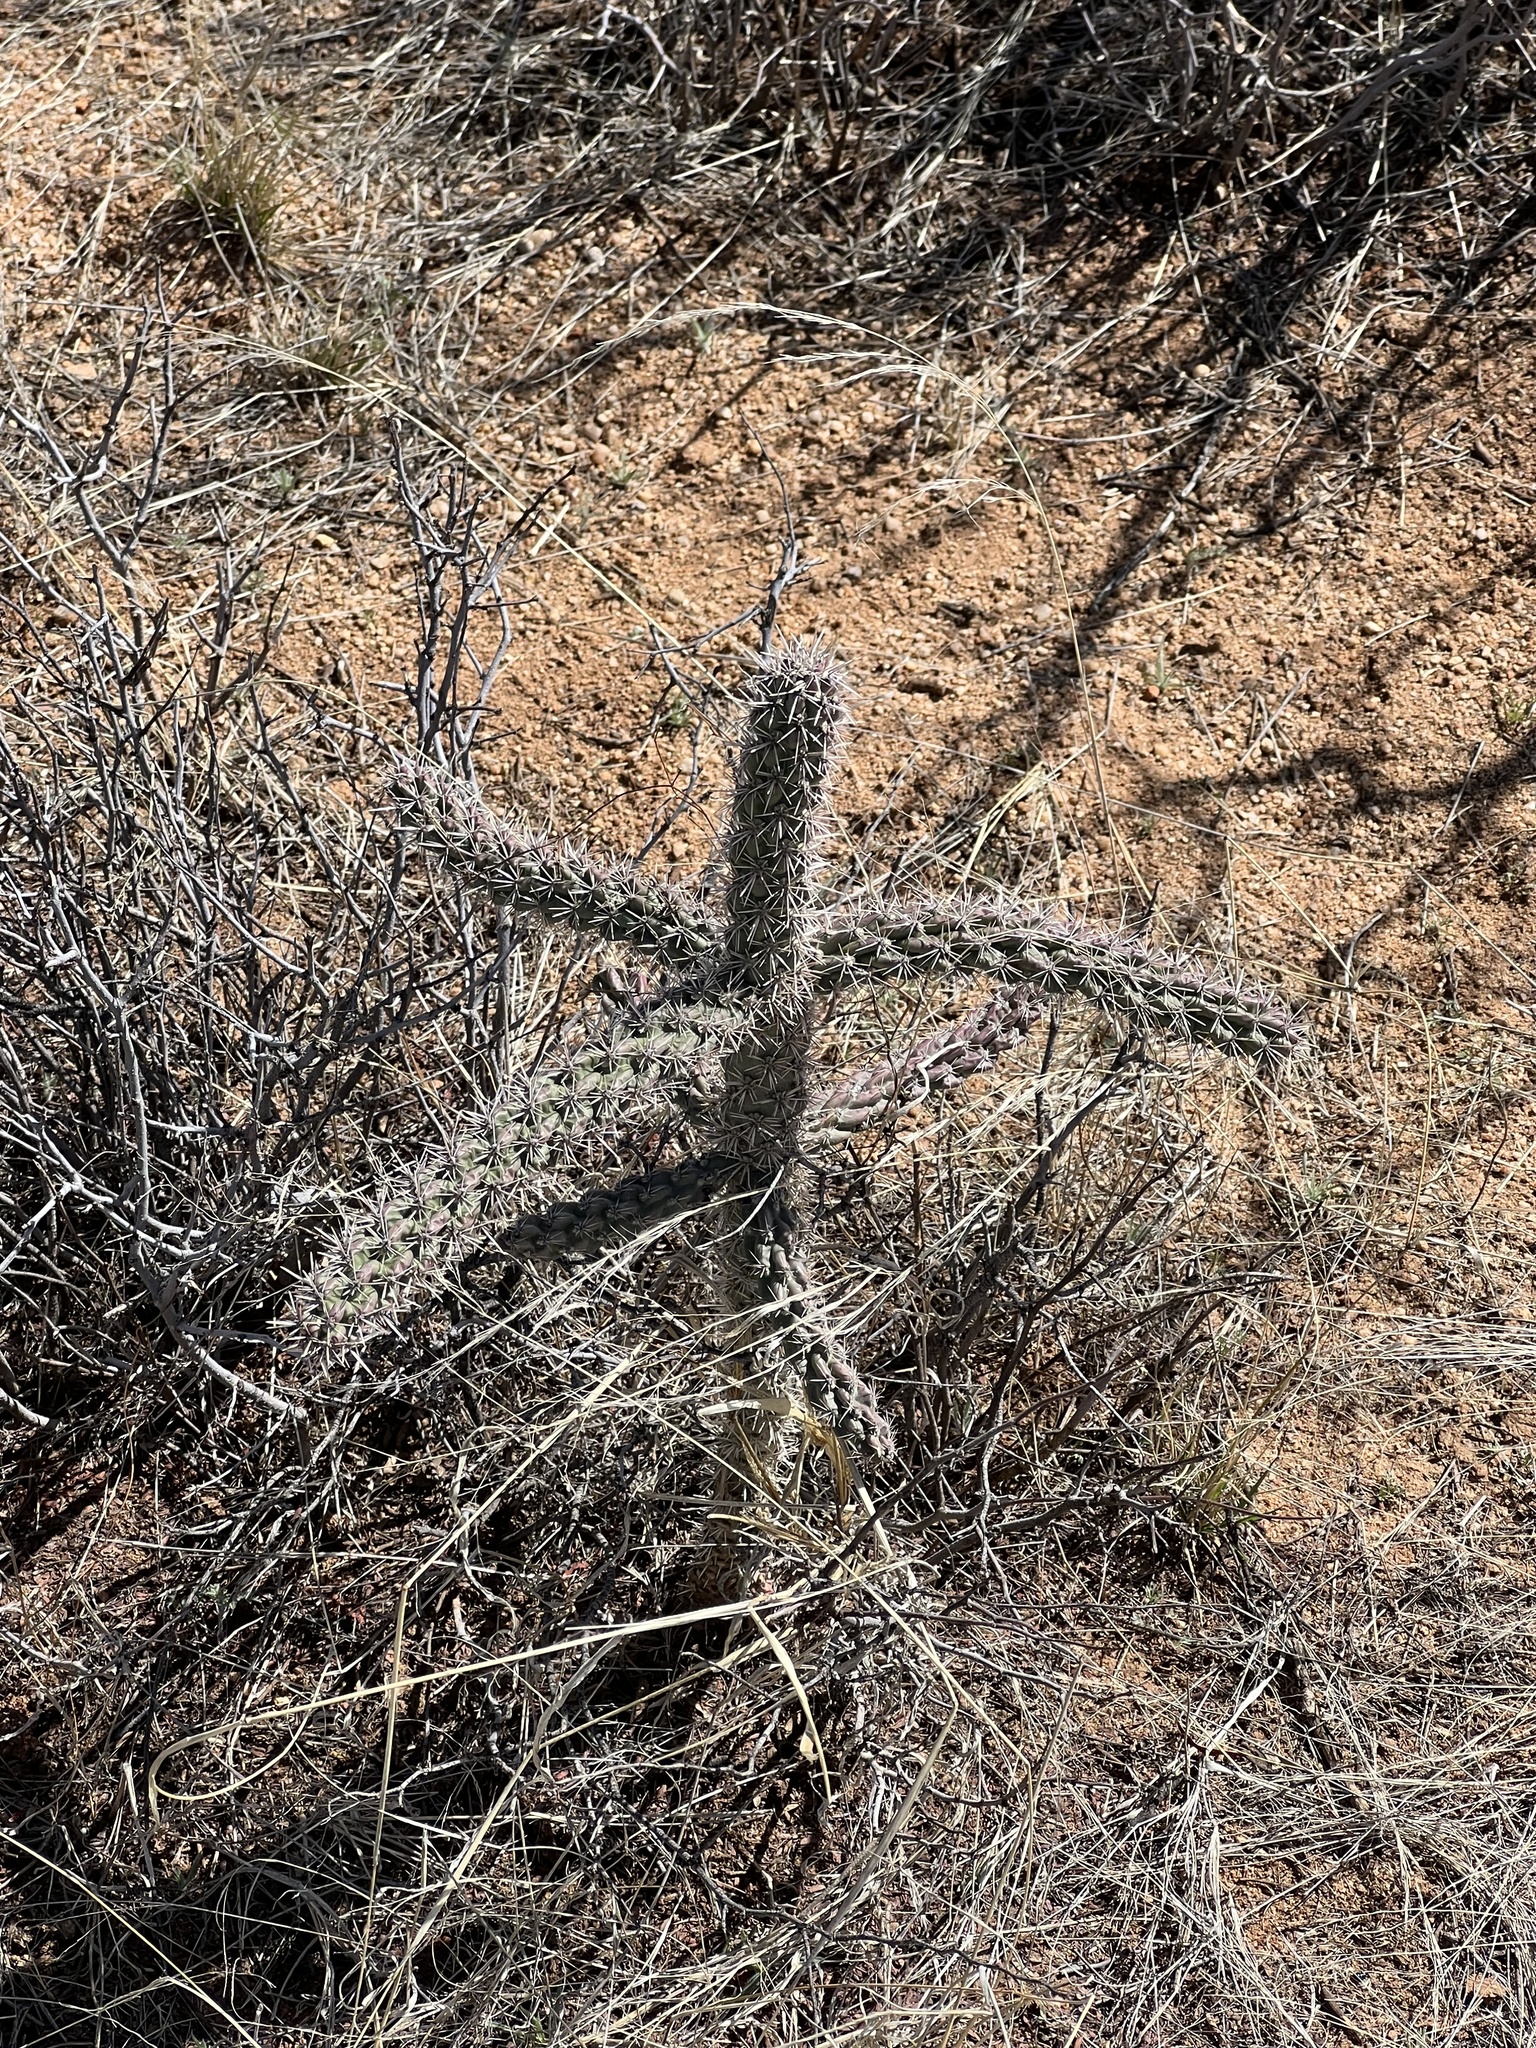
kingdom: Plantae
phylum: Tracheophyta
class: Magnoliopsida
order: Caryophyllales
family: Cactaceae
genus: Cylindropuntia
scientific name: Cylindropuntia imbricata
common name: Candelabrum cactus
